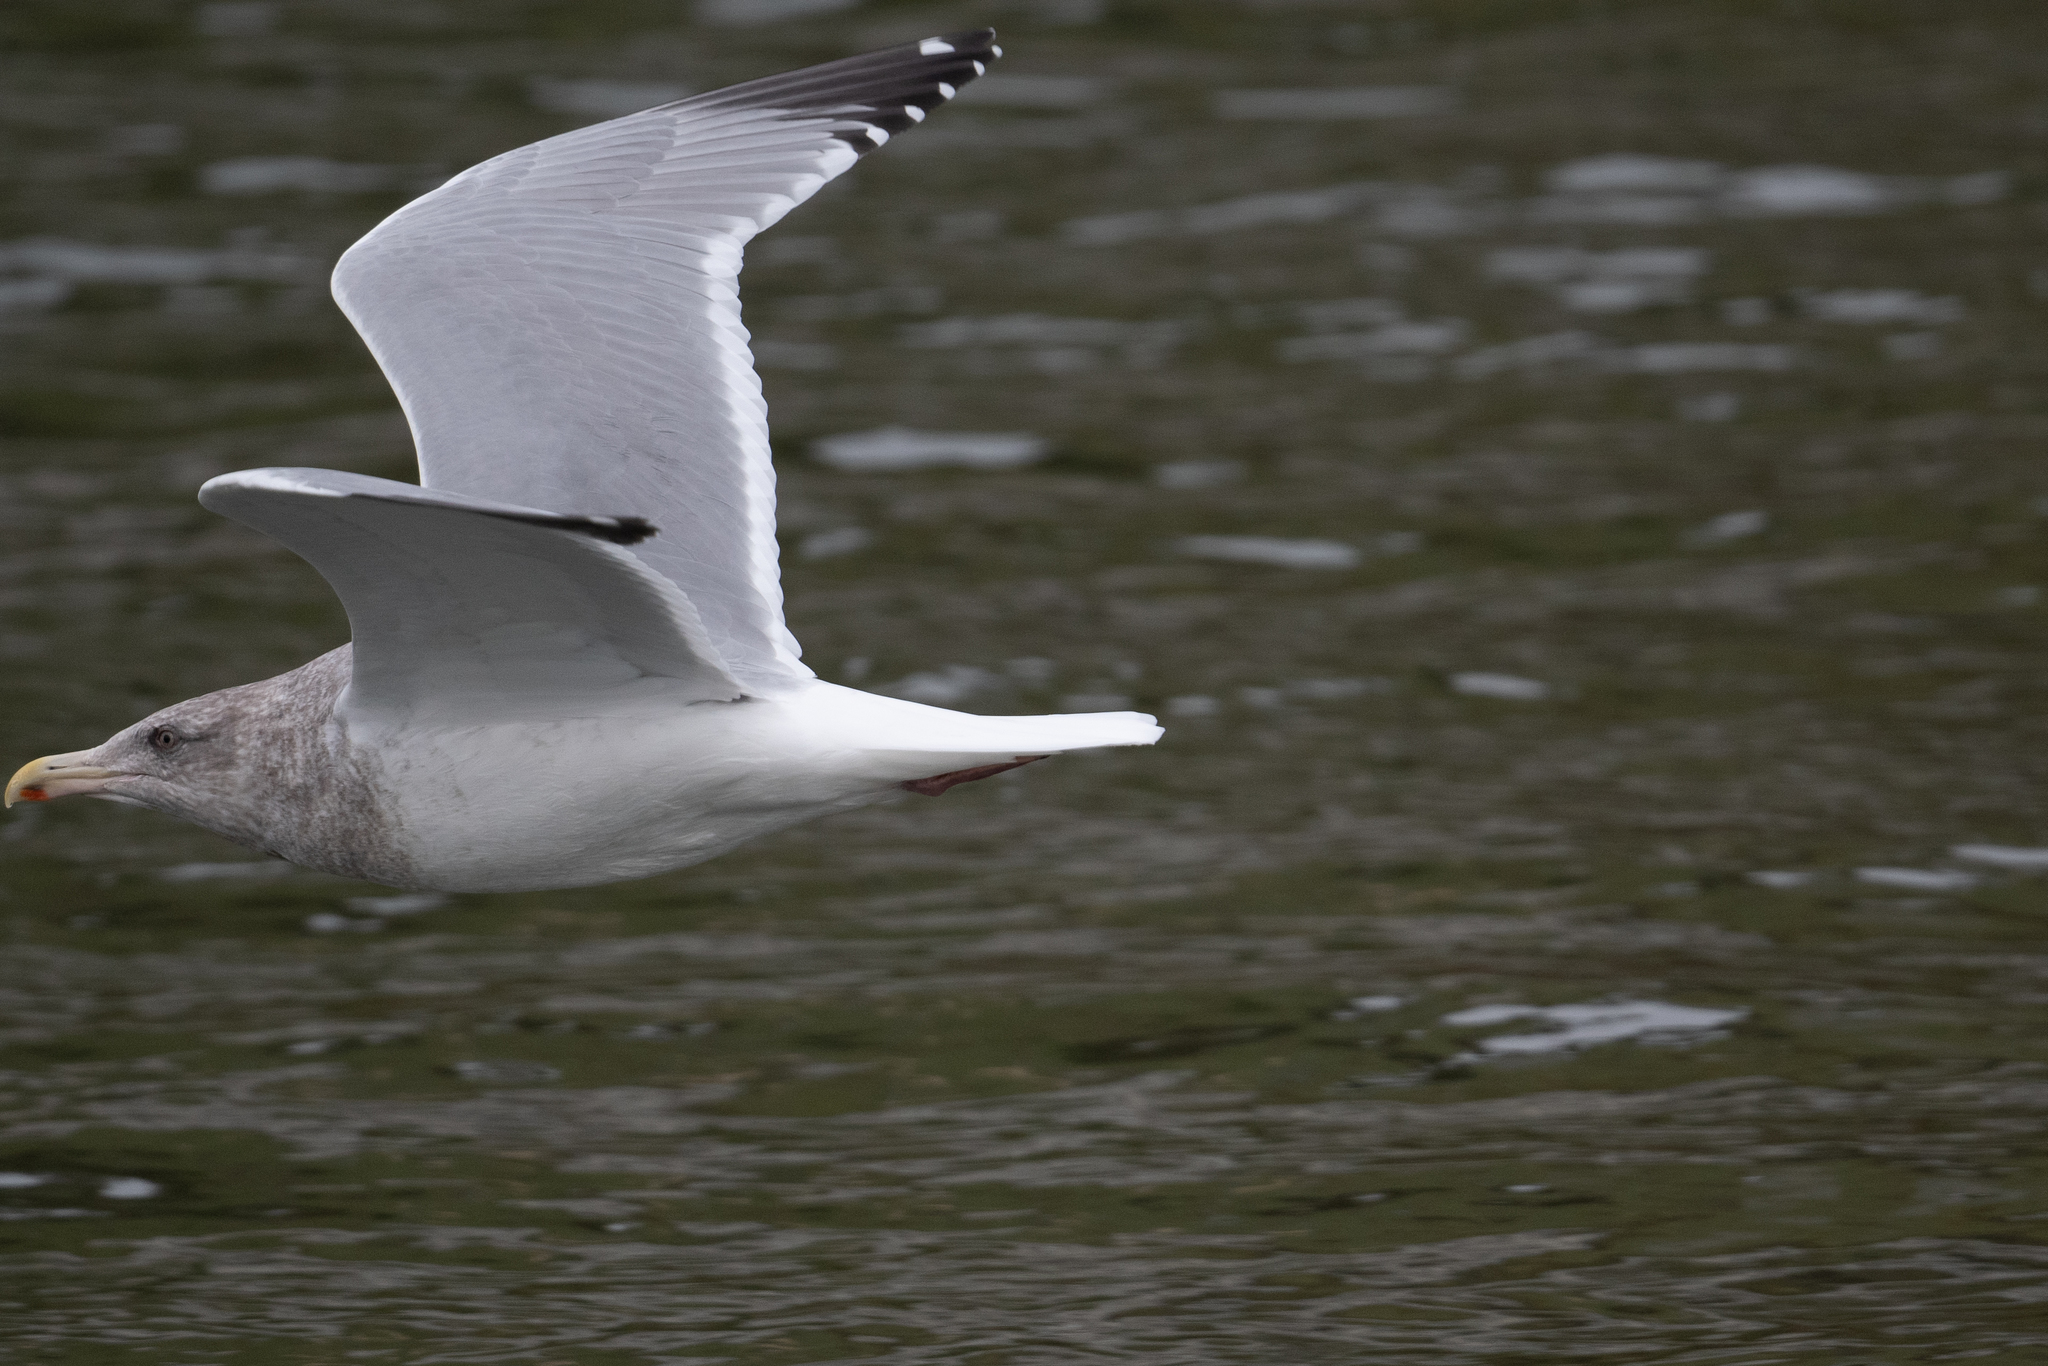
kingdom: Animalia
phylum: Chordata
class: Aves
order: Charadriiformes
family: Laridae
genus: Larus
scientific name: Larus
